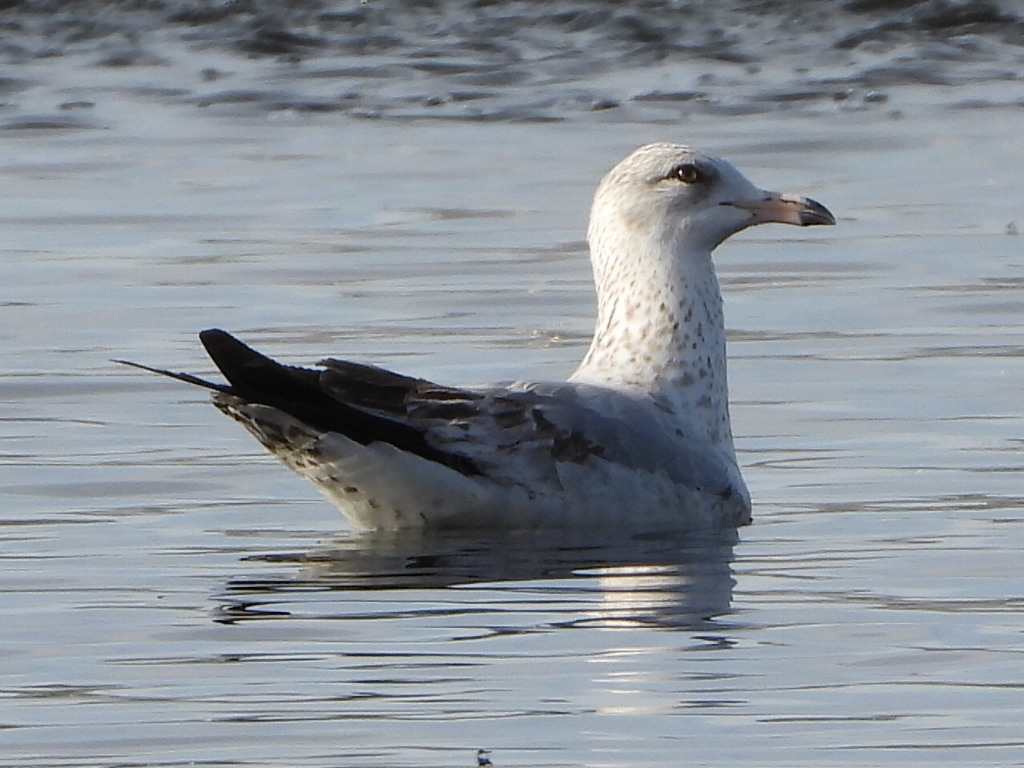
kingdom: Animalia
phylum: Chordata
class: Aves
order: Charadriiformes
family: Laridae
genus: Larus
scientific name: Larus delawarensis
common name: Ring-billed gull
